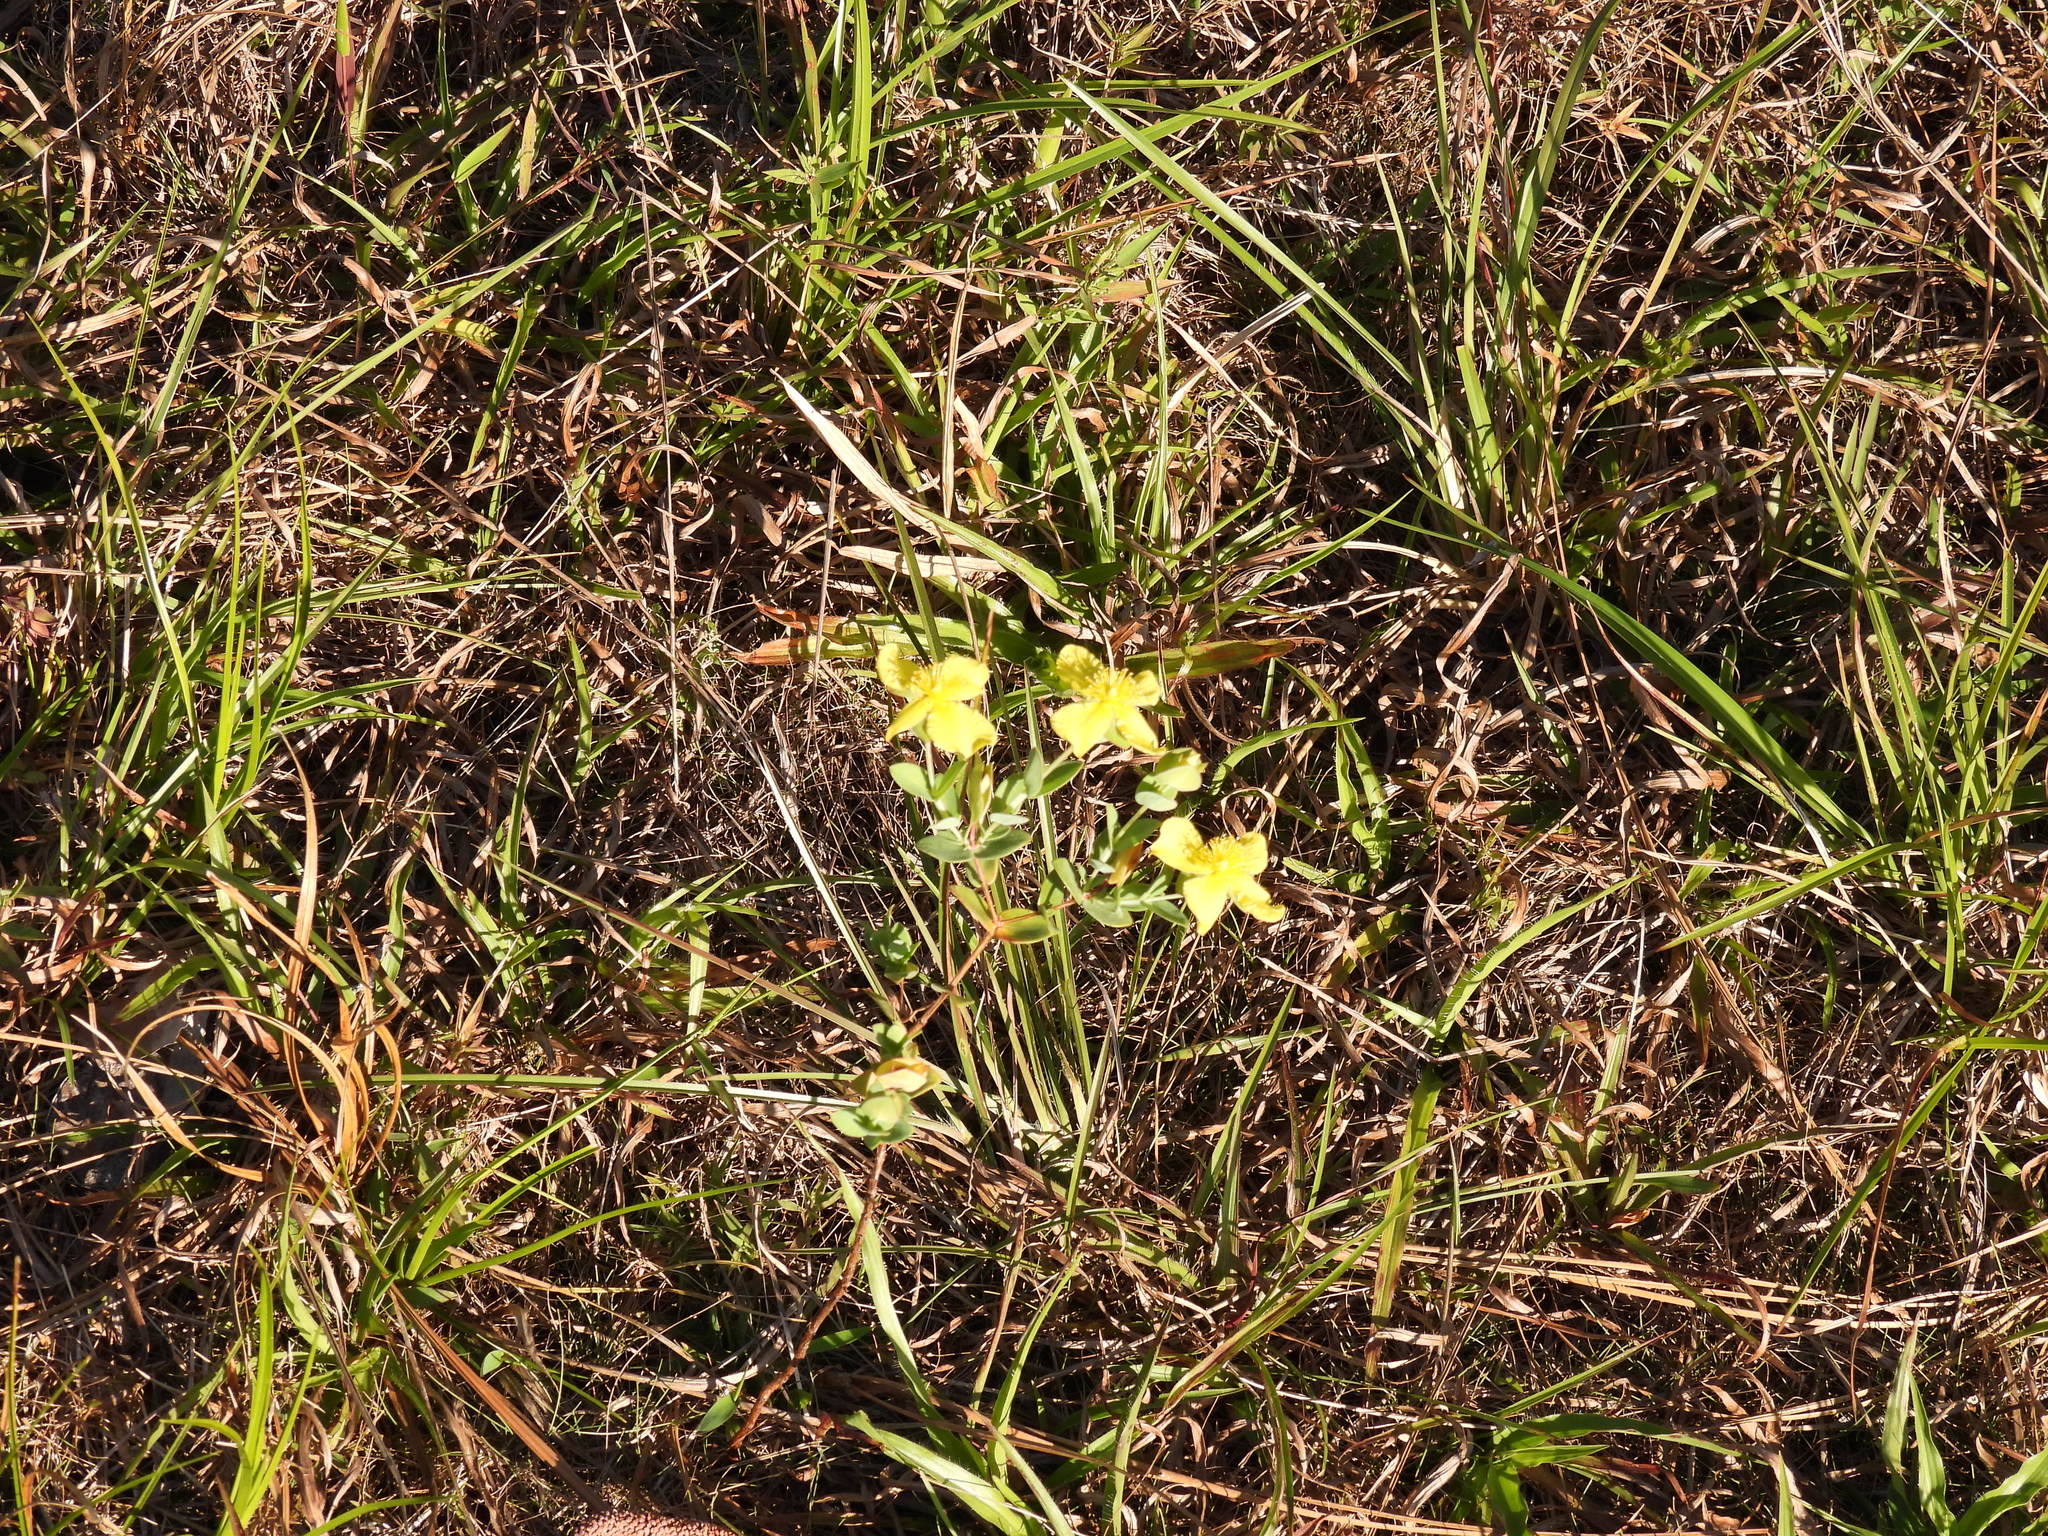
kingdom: Plantae
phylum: Tracheophyta
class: Magnoliopsida
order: Malpighiales
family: Hypericaceae
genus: Hypericum
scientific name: Hypericum tetrapetalum
